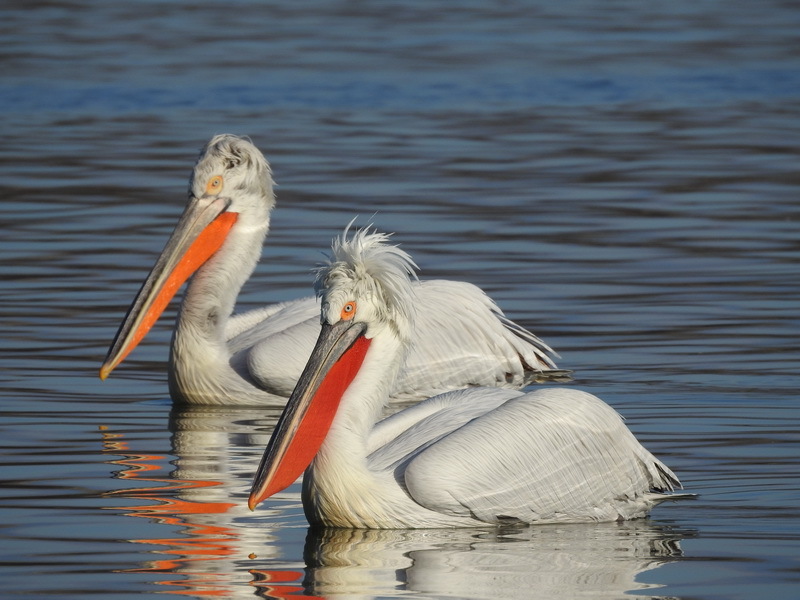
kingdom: Animalia
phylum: Chordata
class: Aves
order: Pelecaniformes
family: Pelecanidae
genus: Pelecanus
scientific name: Pelecanus crispus
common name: Dalmatian pelican
